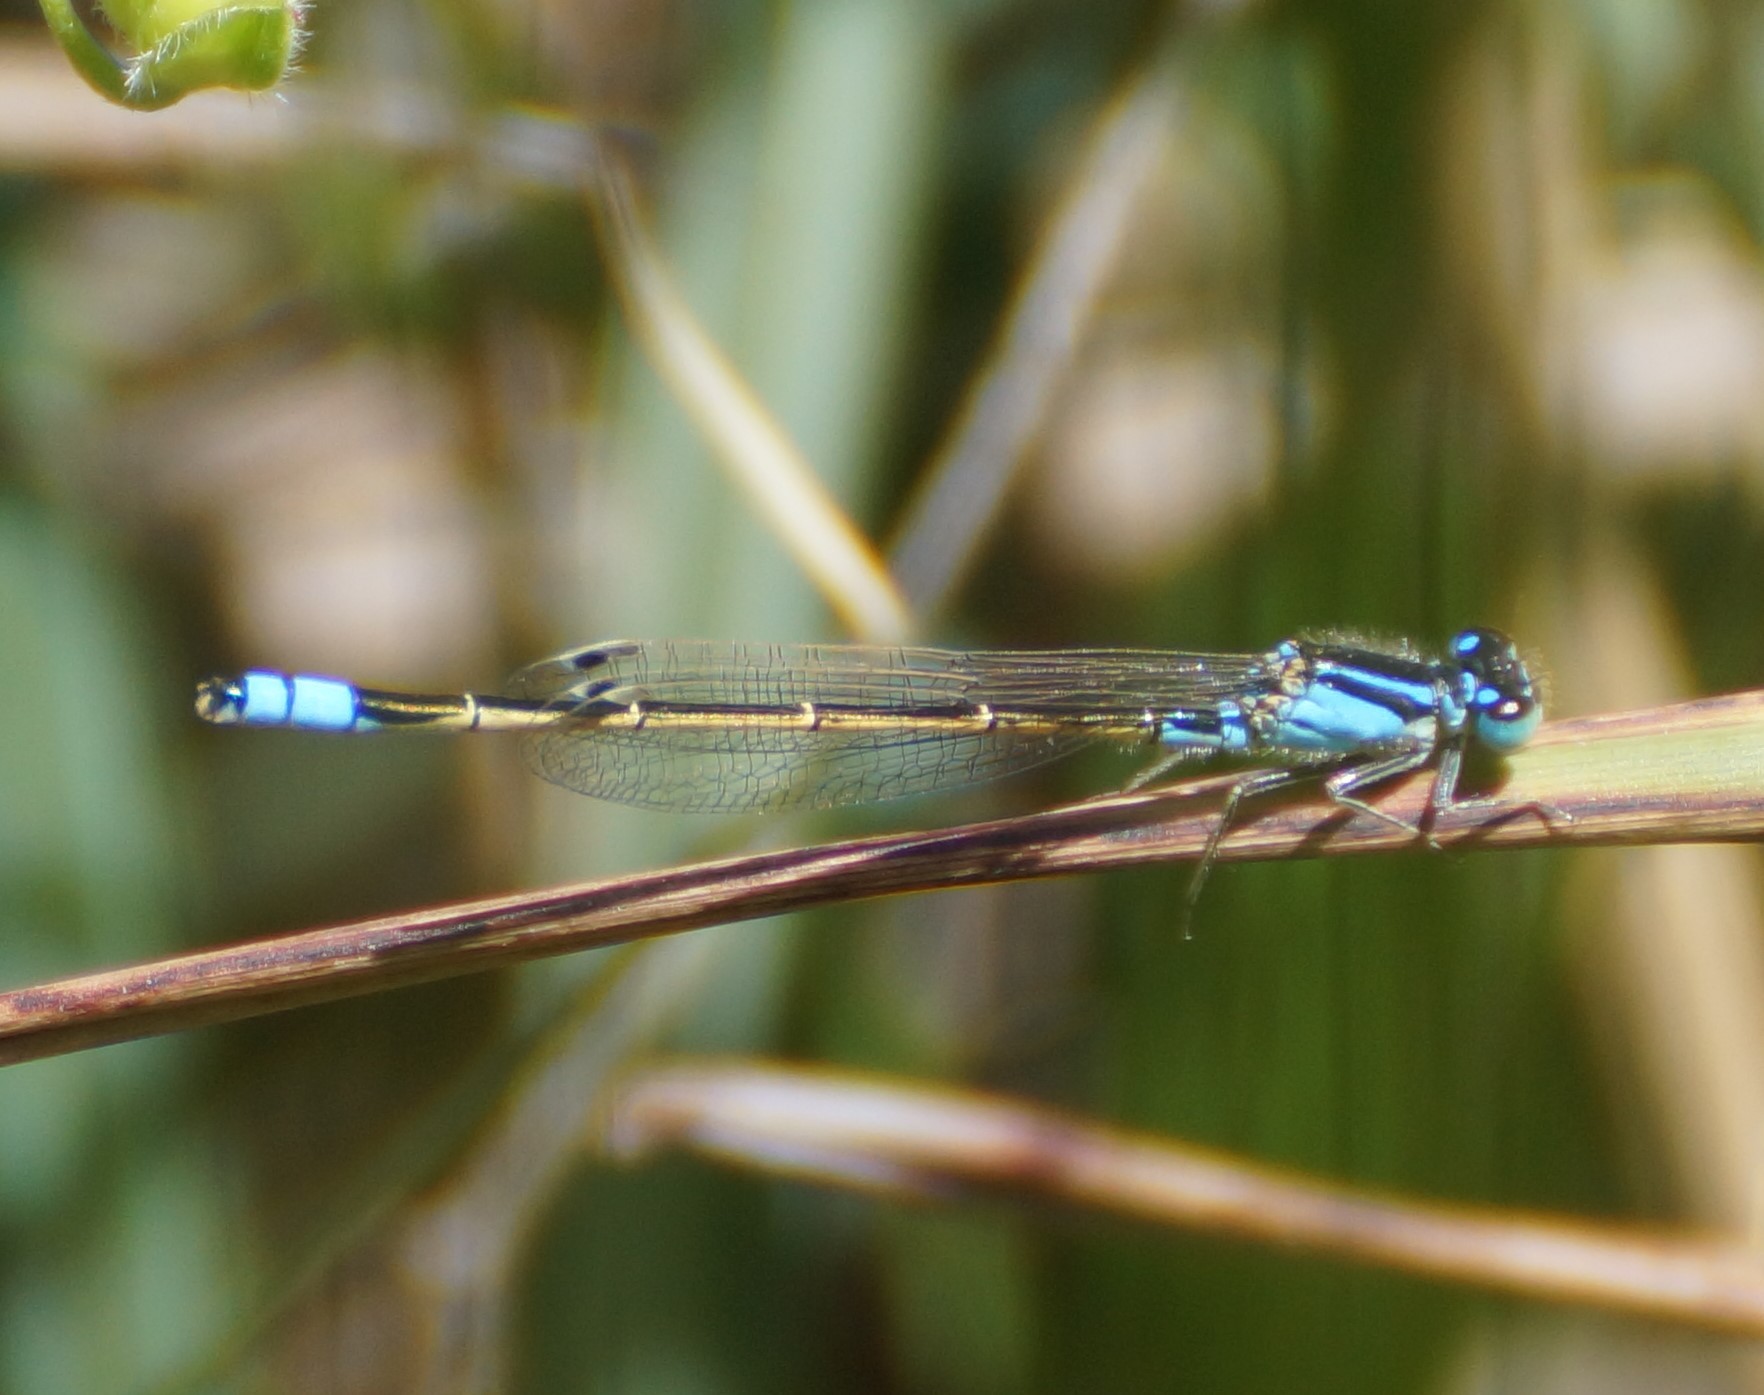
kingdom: Animalia
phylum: Arthropoda
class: Insecta
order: Odonata
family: Coenagrionidae
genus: Ischnura
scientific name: Ischnura heterosticta
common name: Common bluetail
